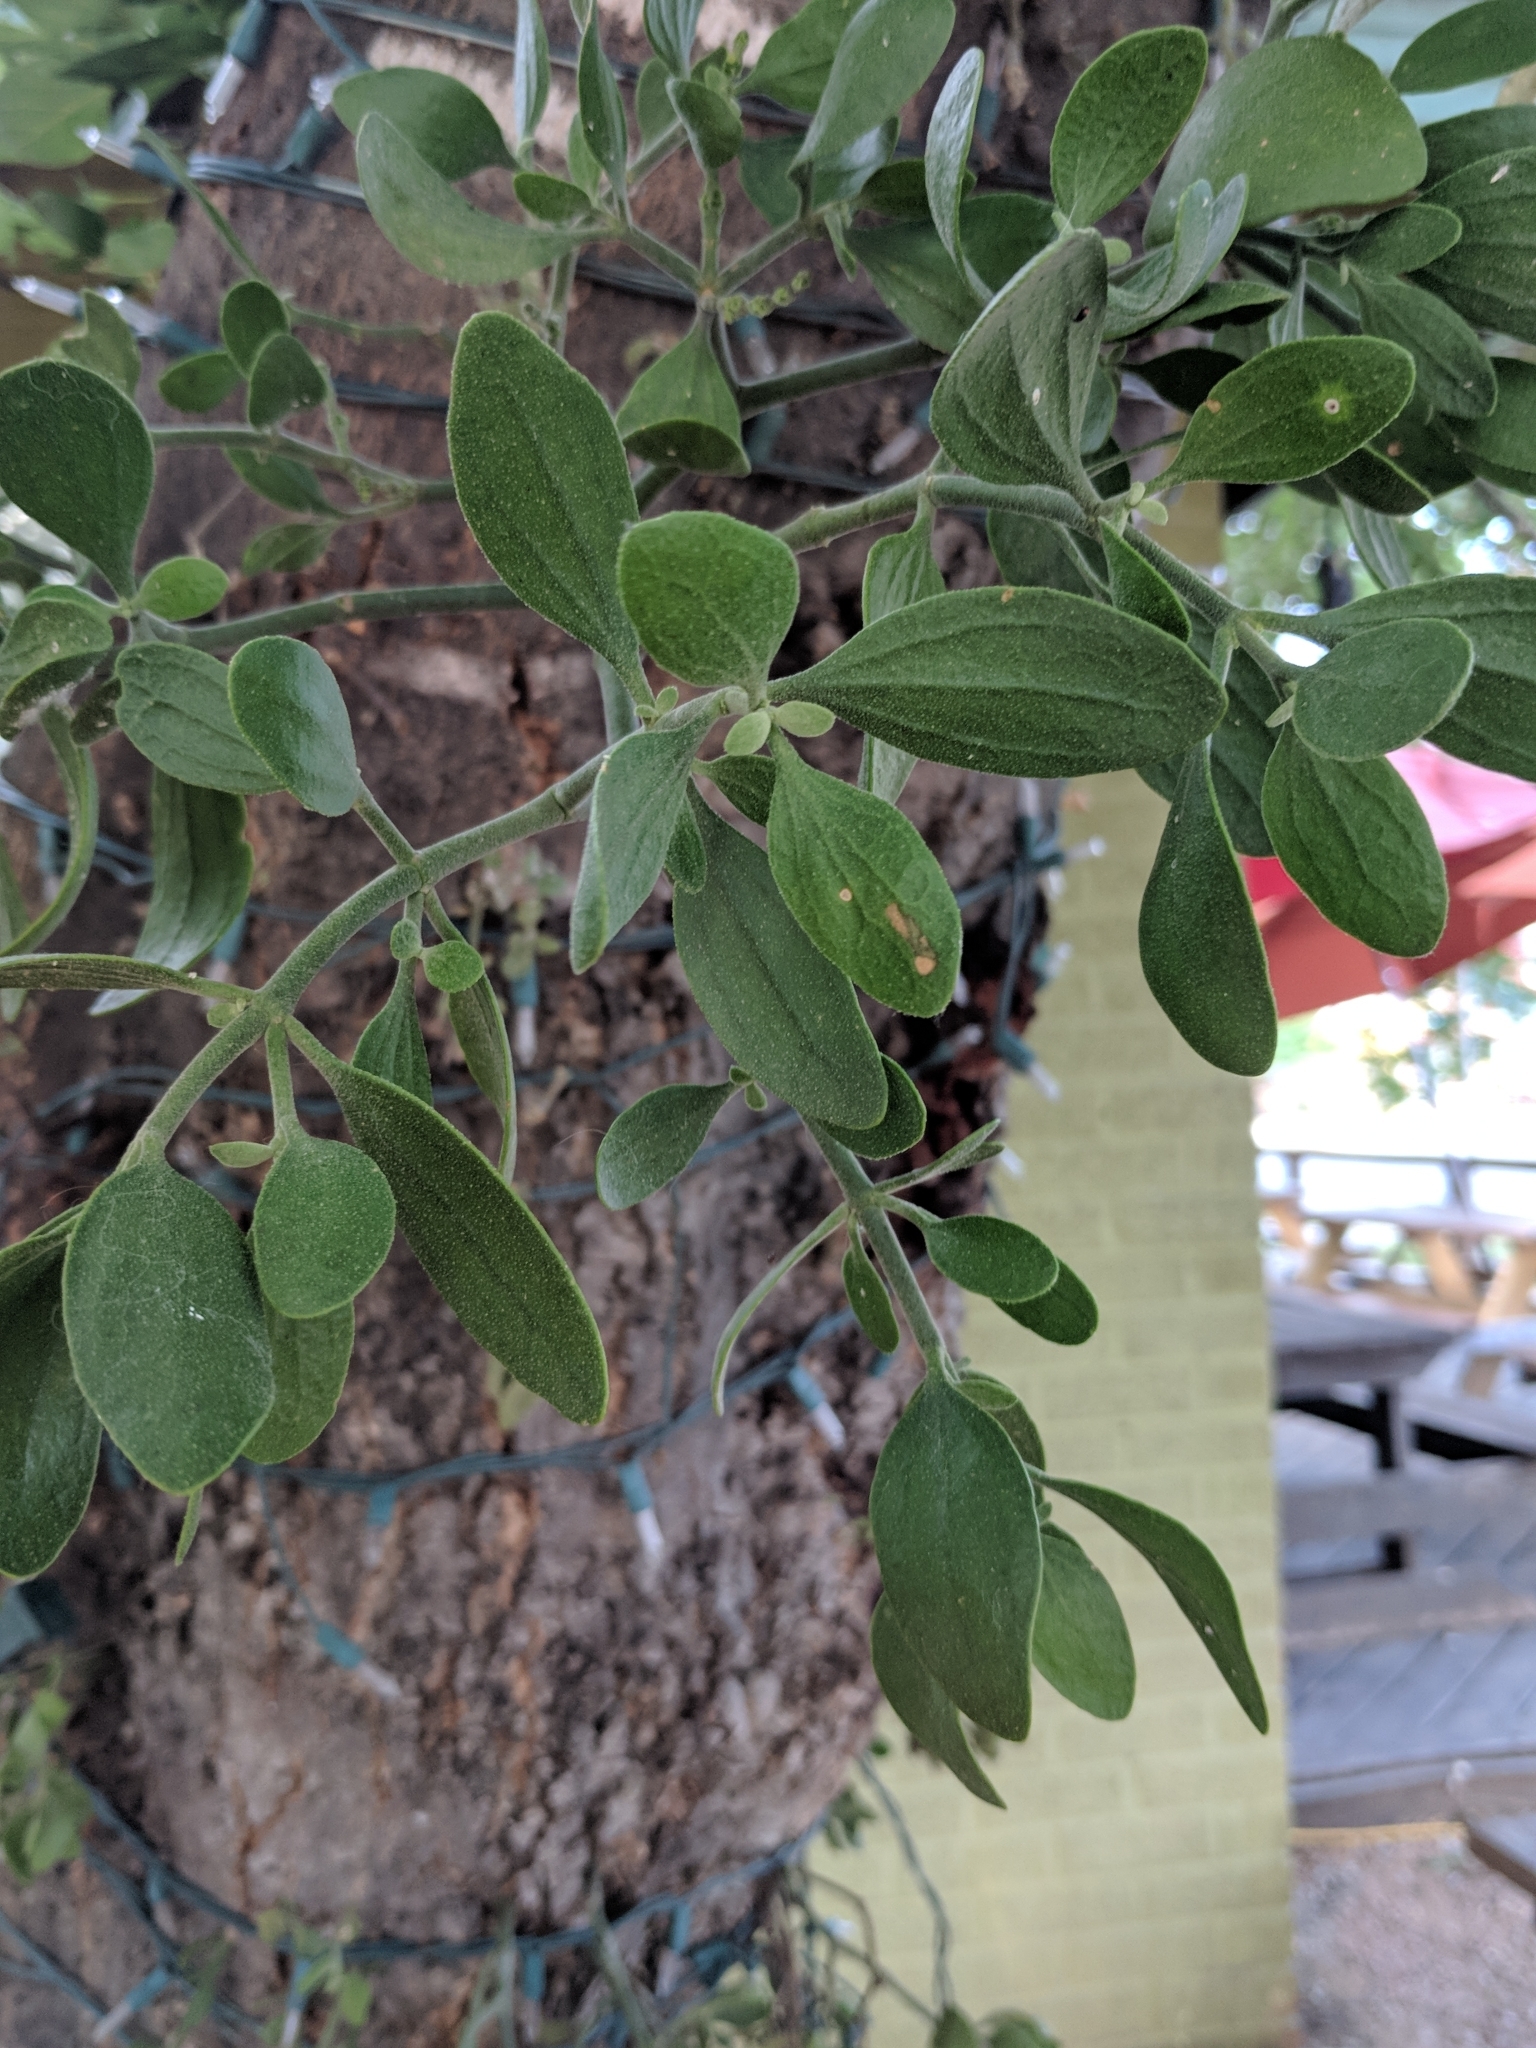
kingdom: Plantae
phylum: Tracheophyta
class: Magnoliopsida
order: Santalales
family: Viscaceae
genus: Phoradendron
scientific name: Phoradendron leucarpum
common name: Pacific mistletoe
